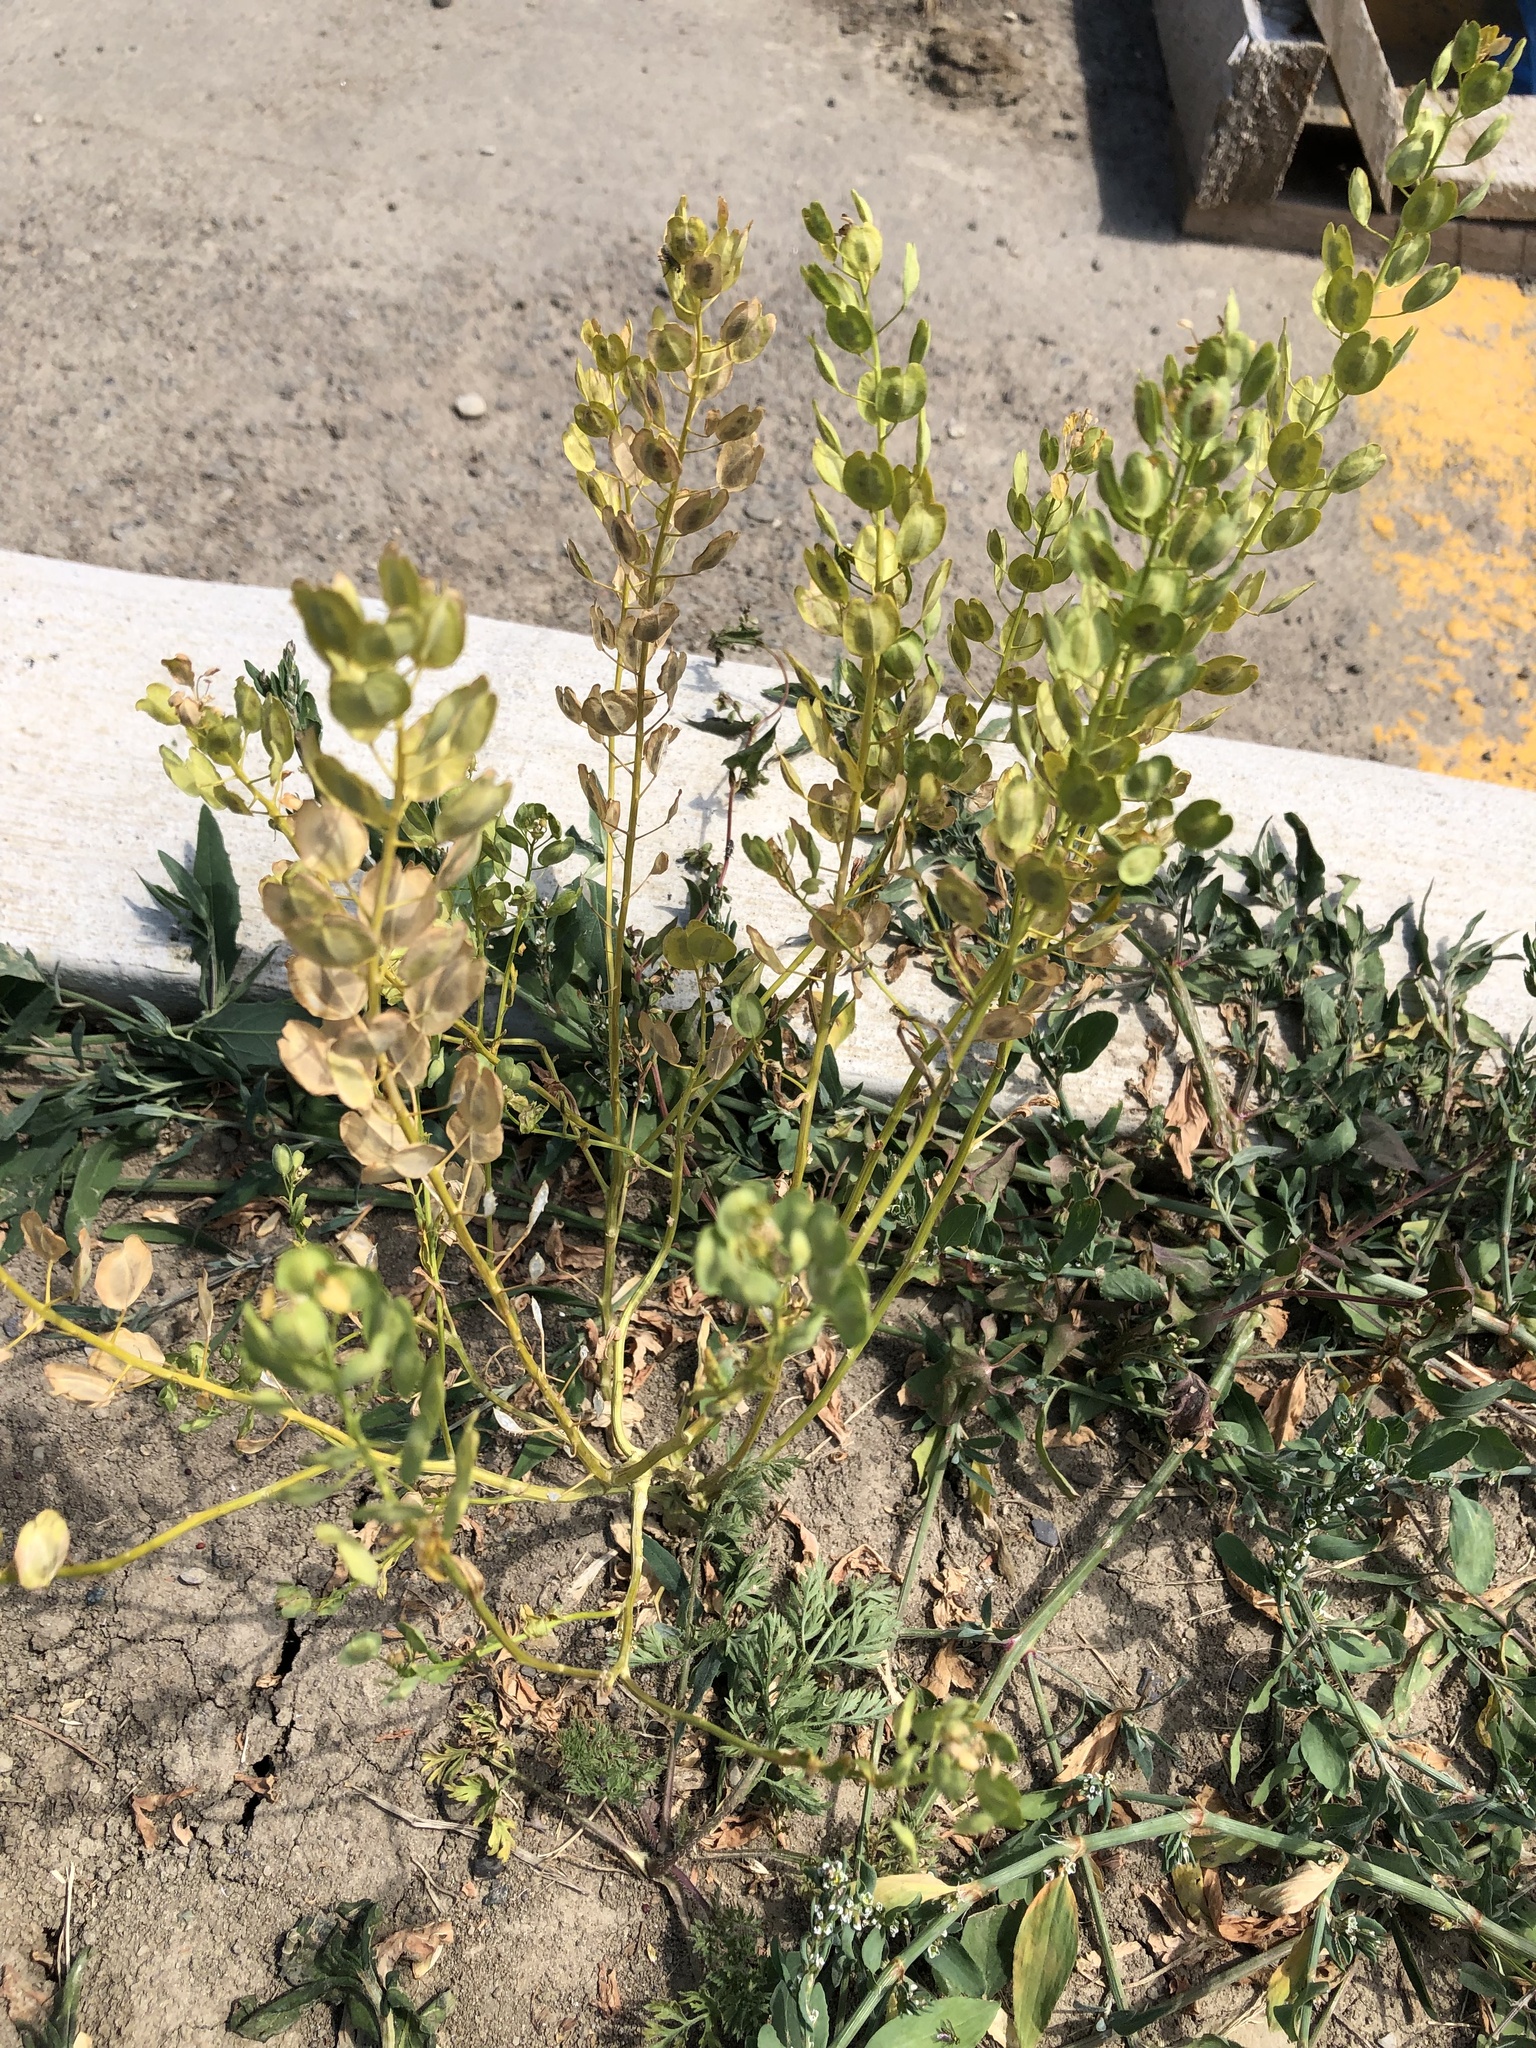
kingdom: Plantae
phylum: Tracheophyta
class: Magnoliopsida
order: Brassicales
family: Brassicaceae
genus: Thlaspi
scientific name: Thlaspi arvense
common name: Field pennycress
